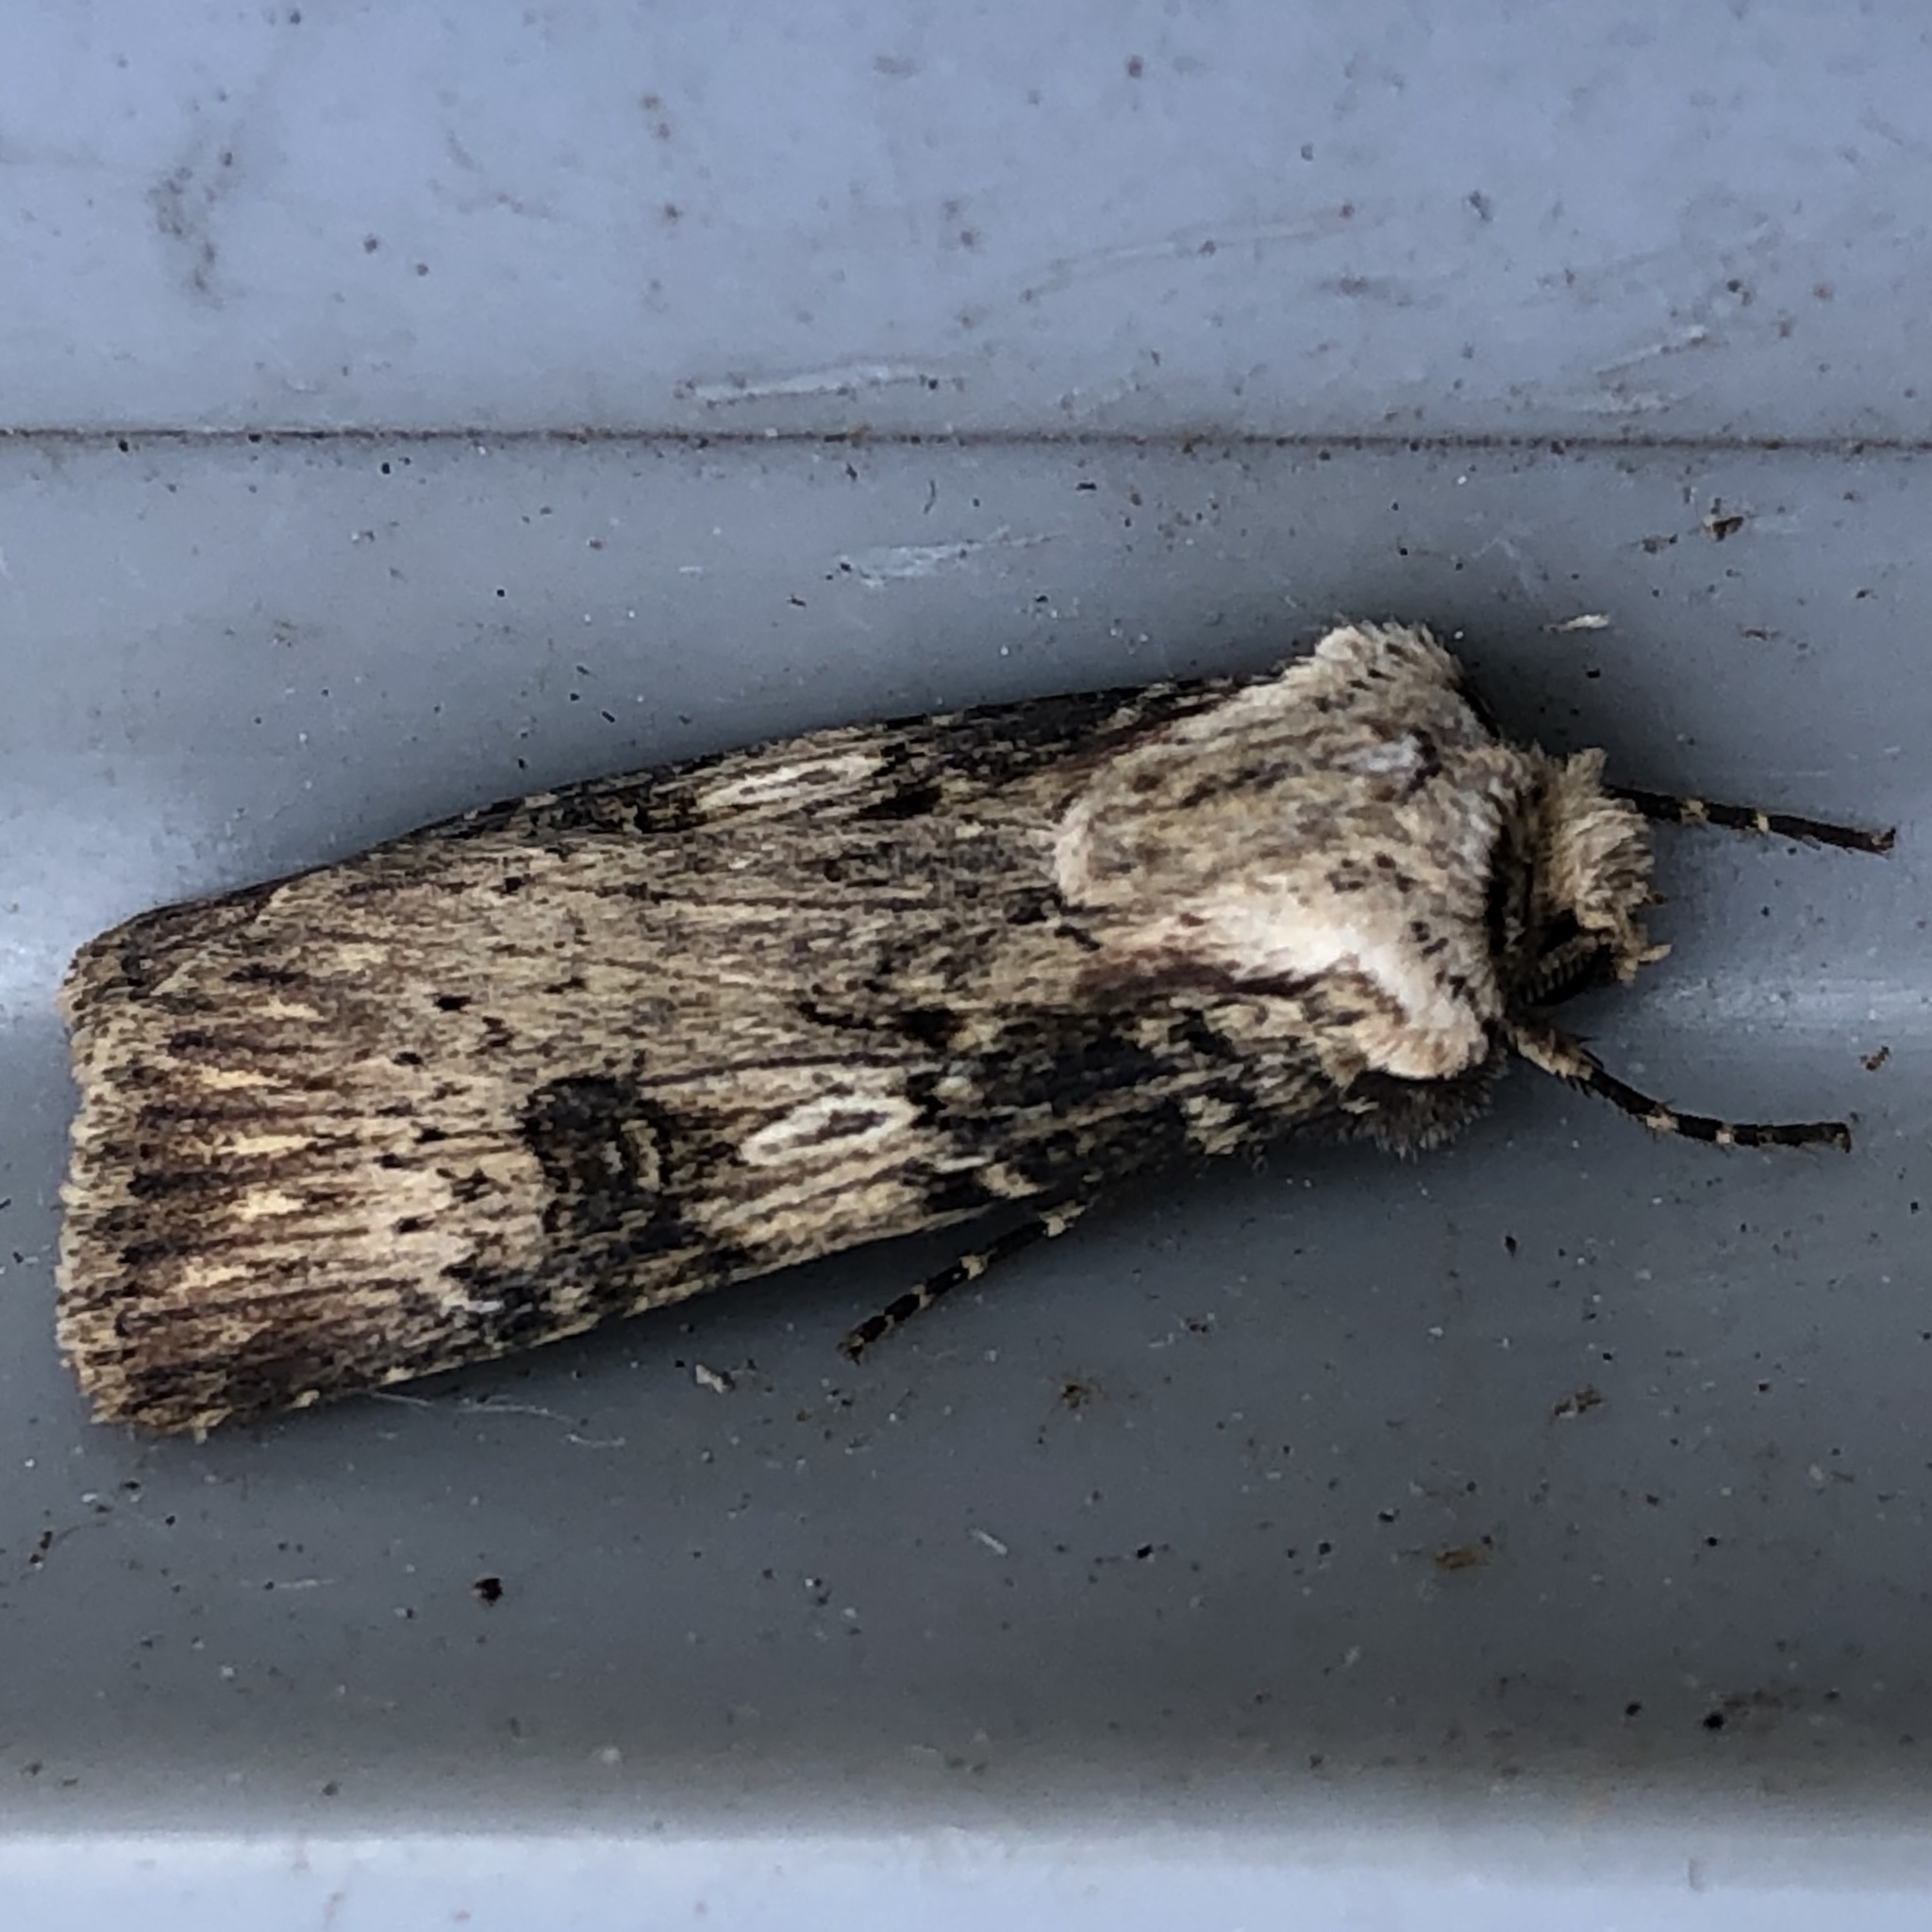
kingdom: Animalia
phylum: Arthropoda
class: Insecta
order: Lepidoptera
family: Noctuidae
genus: Agrotis
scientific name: Agrotis puta
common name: Shuttle-shaped dart
